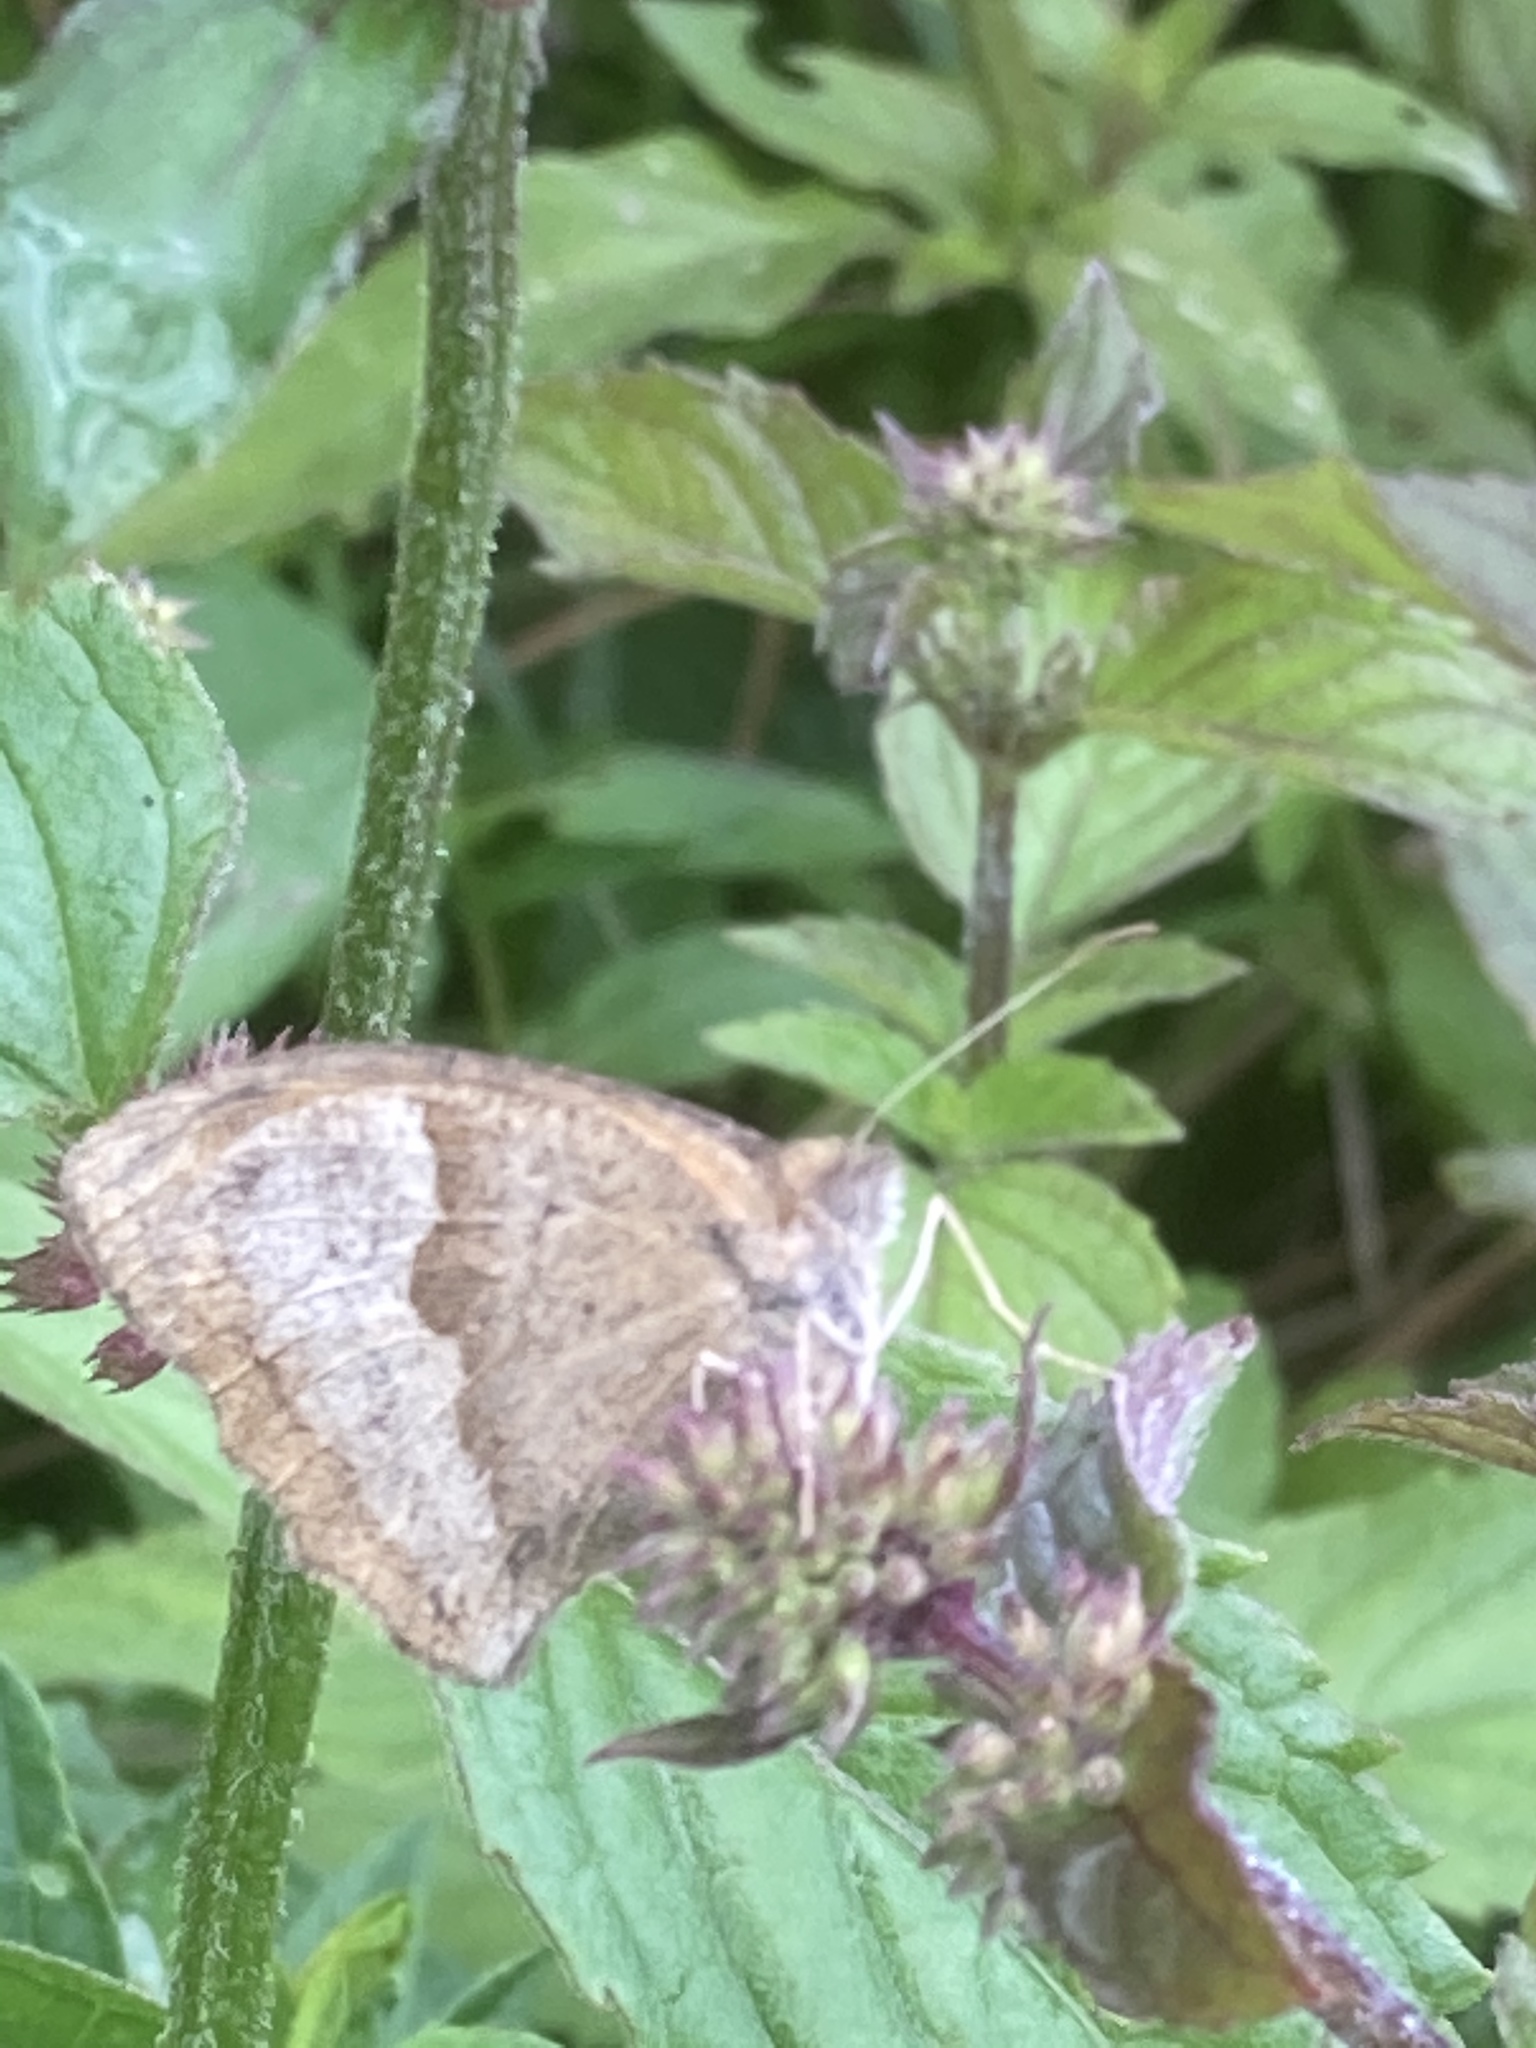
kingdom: Animalia
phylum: Arthropoda
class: Insecta
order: Lepidoptera
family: Nymphalidae
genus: Maniola
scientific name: Maniola jurtina
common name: Meadow brown
